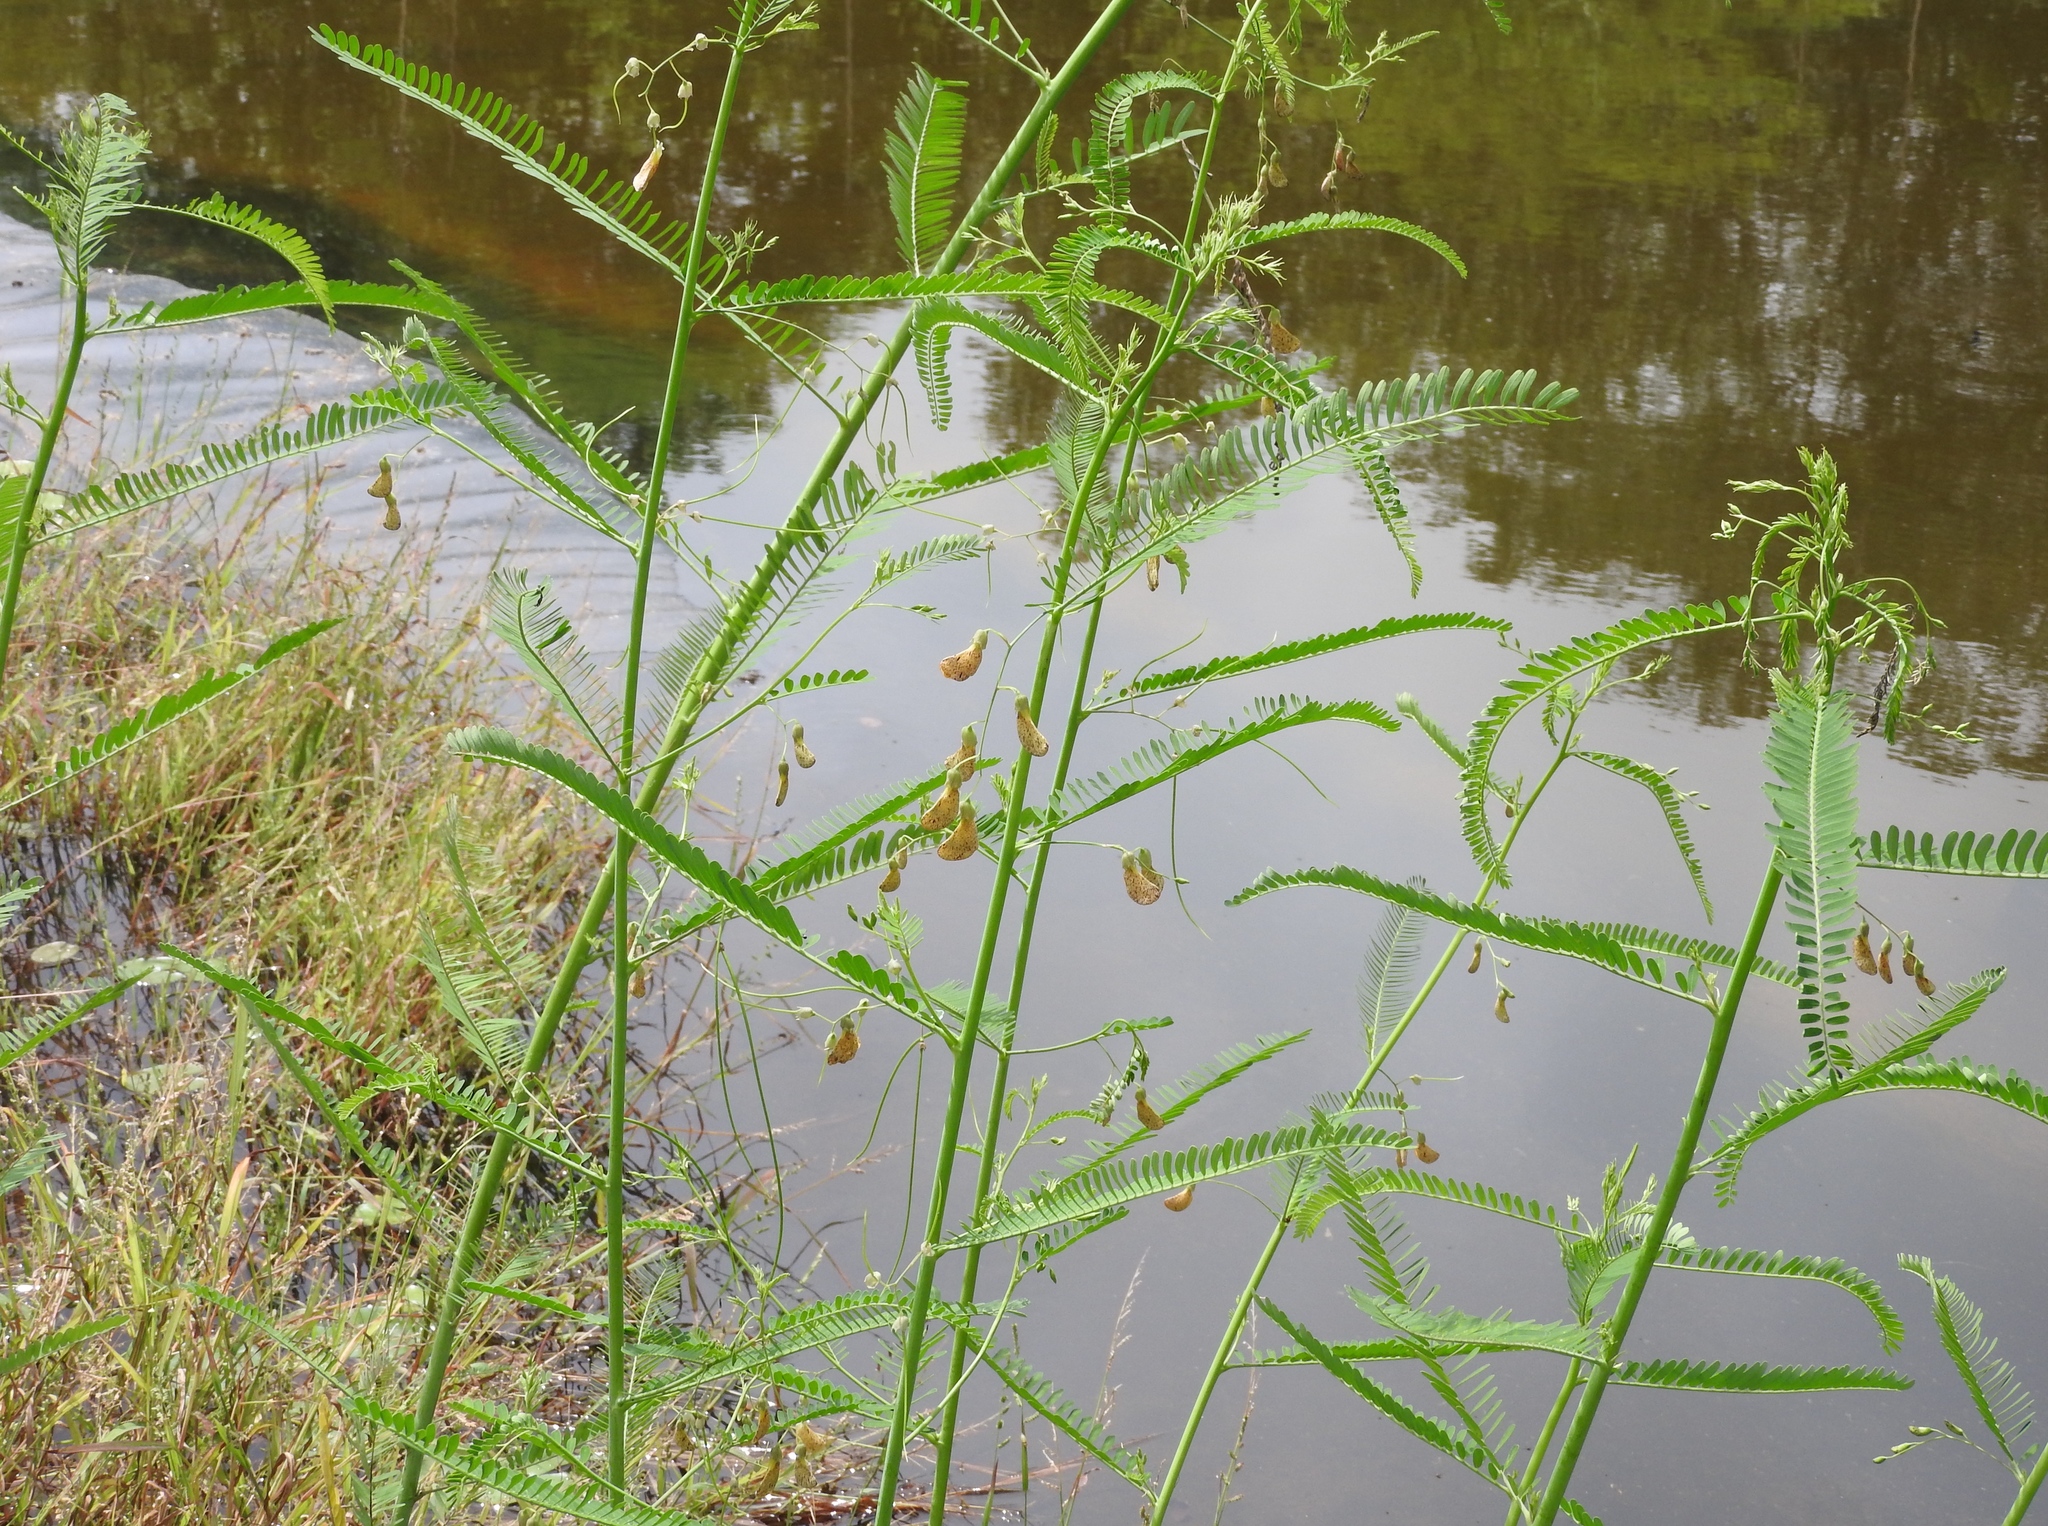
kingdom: Plantae
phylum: Tracheophyta
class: Magnoliopsida
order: Fabales
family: Fabaceae
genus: Sesbania
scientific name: Sesbania herbacea
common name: Bigpod sesbania
